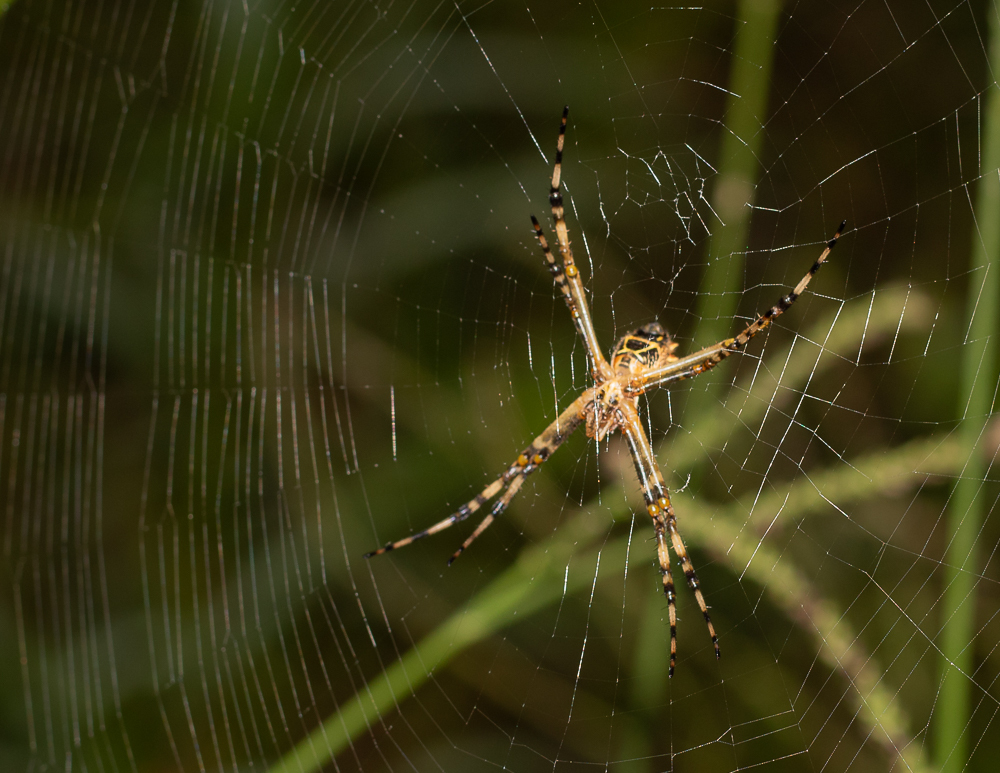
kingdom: Animalia
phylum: Arthropoda
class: Arachnida
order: Araneae
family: Araneidae
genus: Argiope
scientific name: Argiope argentata
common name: Orb weavers
